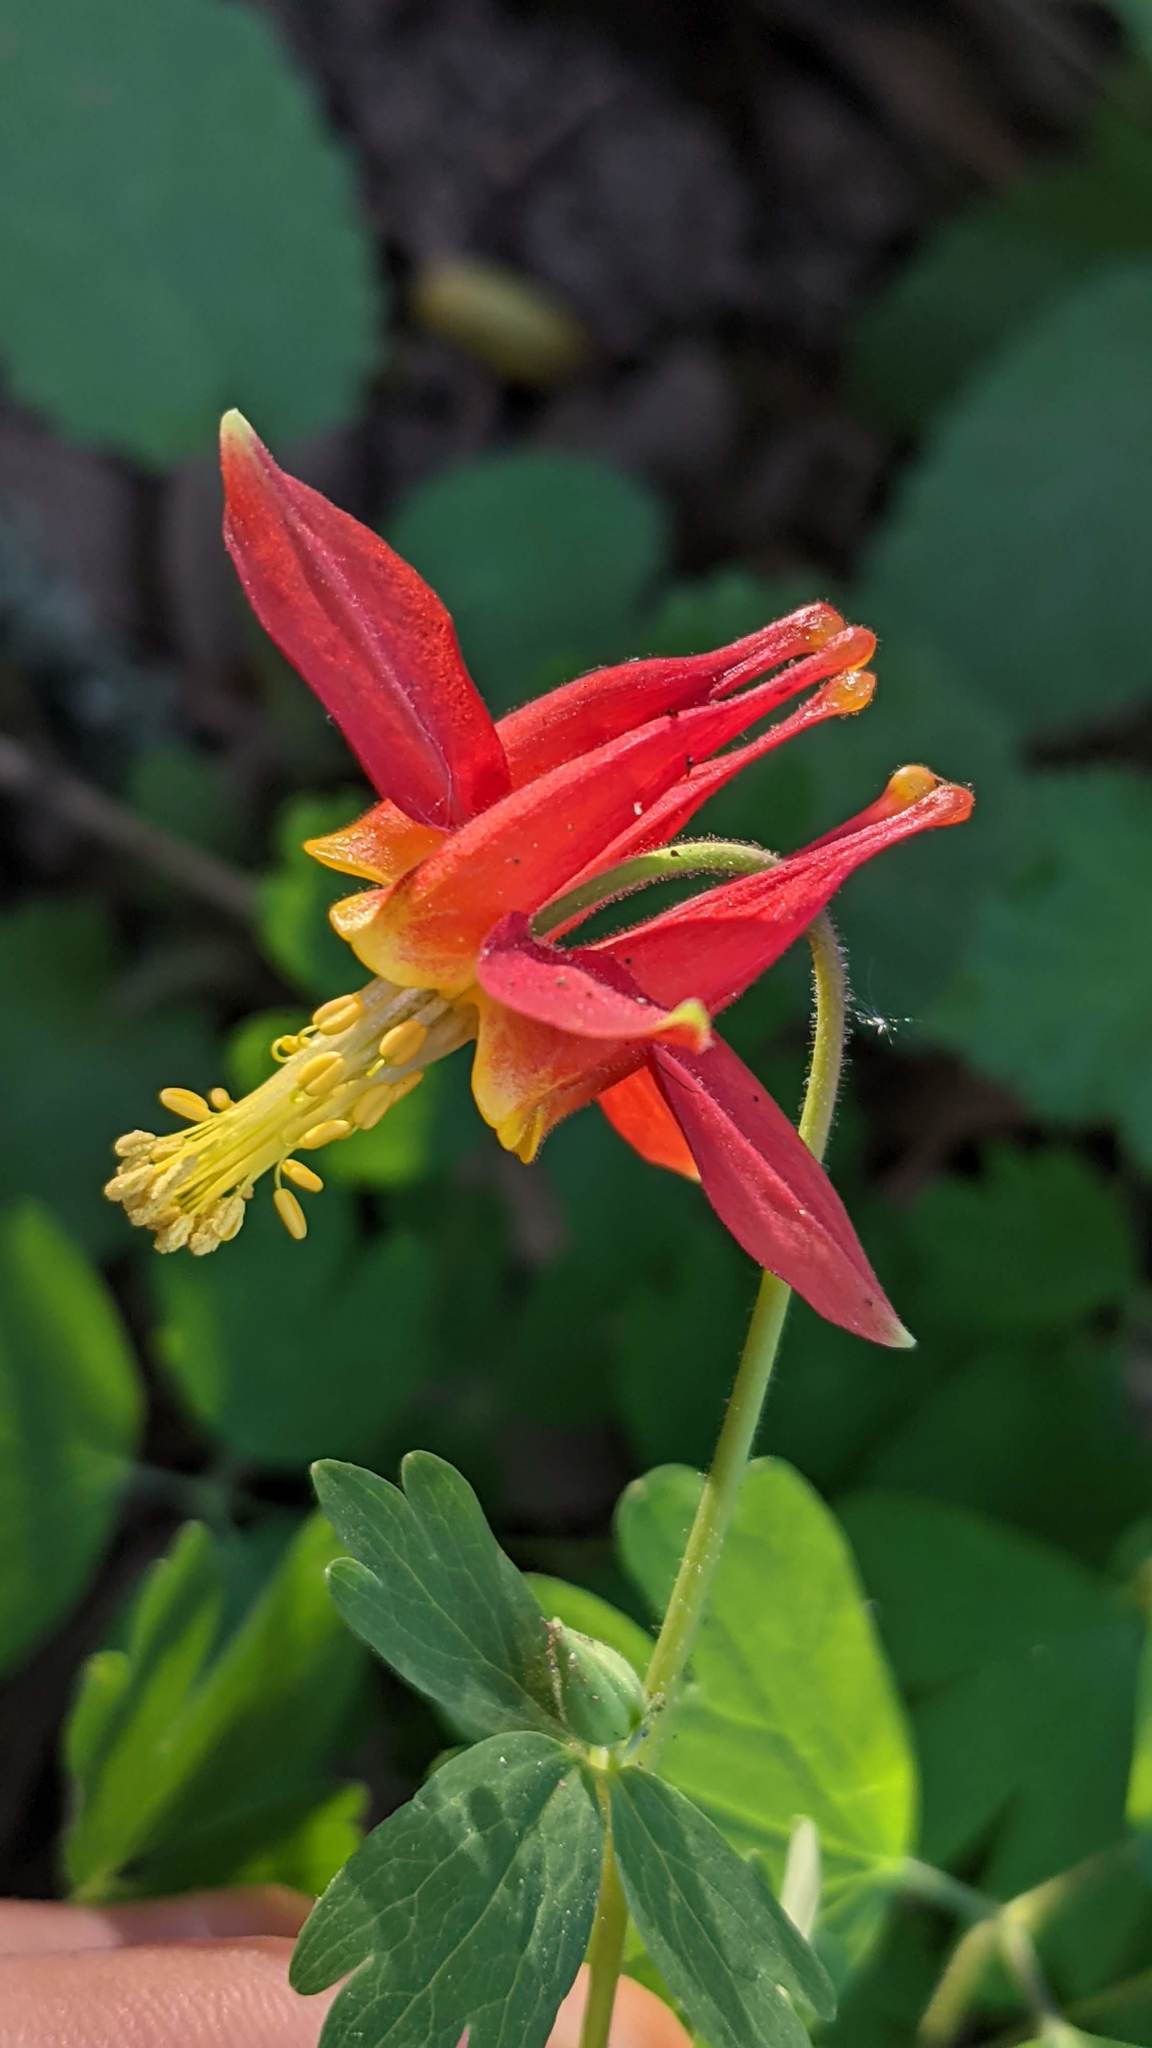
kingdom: Plantae
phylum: Tracheophyta
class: Magnoliopsida
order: Ranunculales
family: Ranunculaceae
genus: Aquilegia
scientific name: Aquilegia formosa
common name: Sitka columbine
